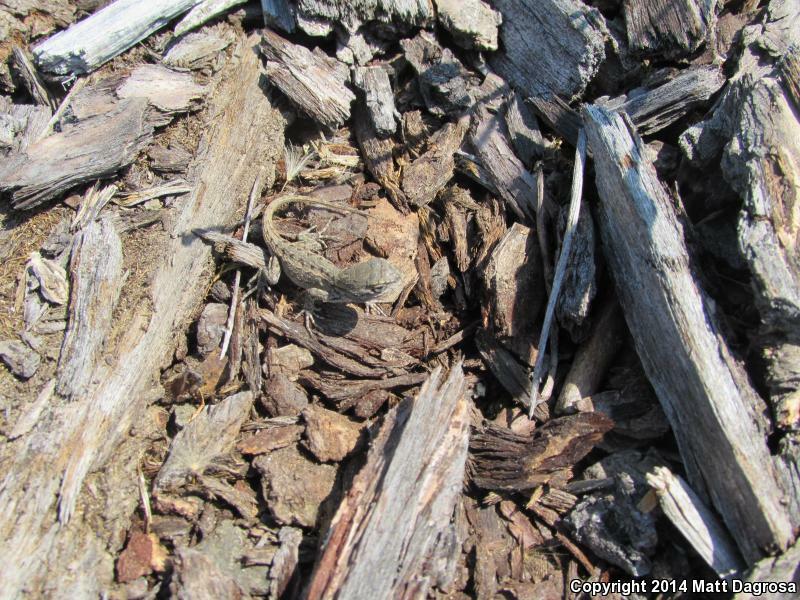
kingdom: Animalia
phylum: Chordata
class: Squamata
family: Phrynosomatidae
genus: Sceloporus
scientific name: Sceloporus occidentalis
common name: Western fence lizard
